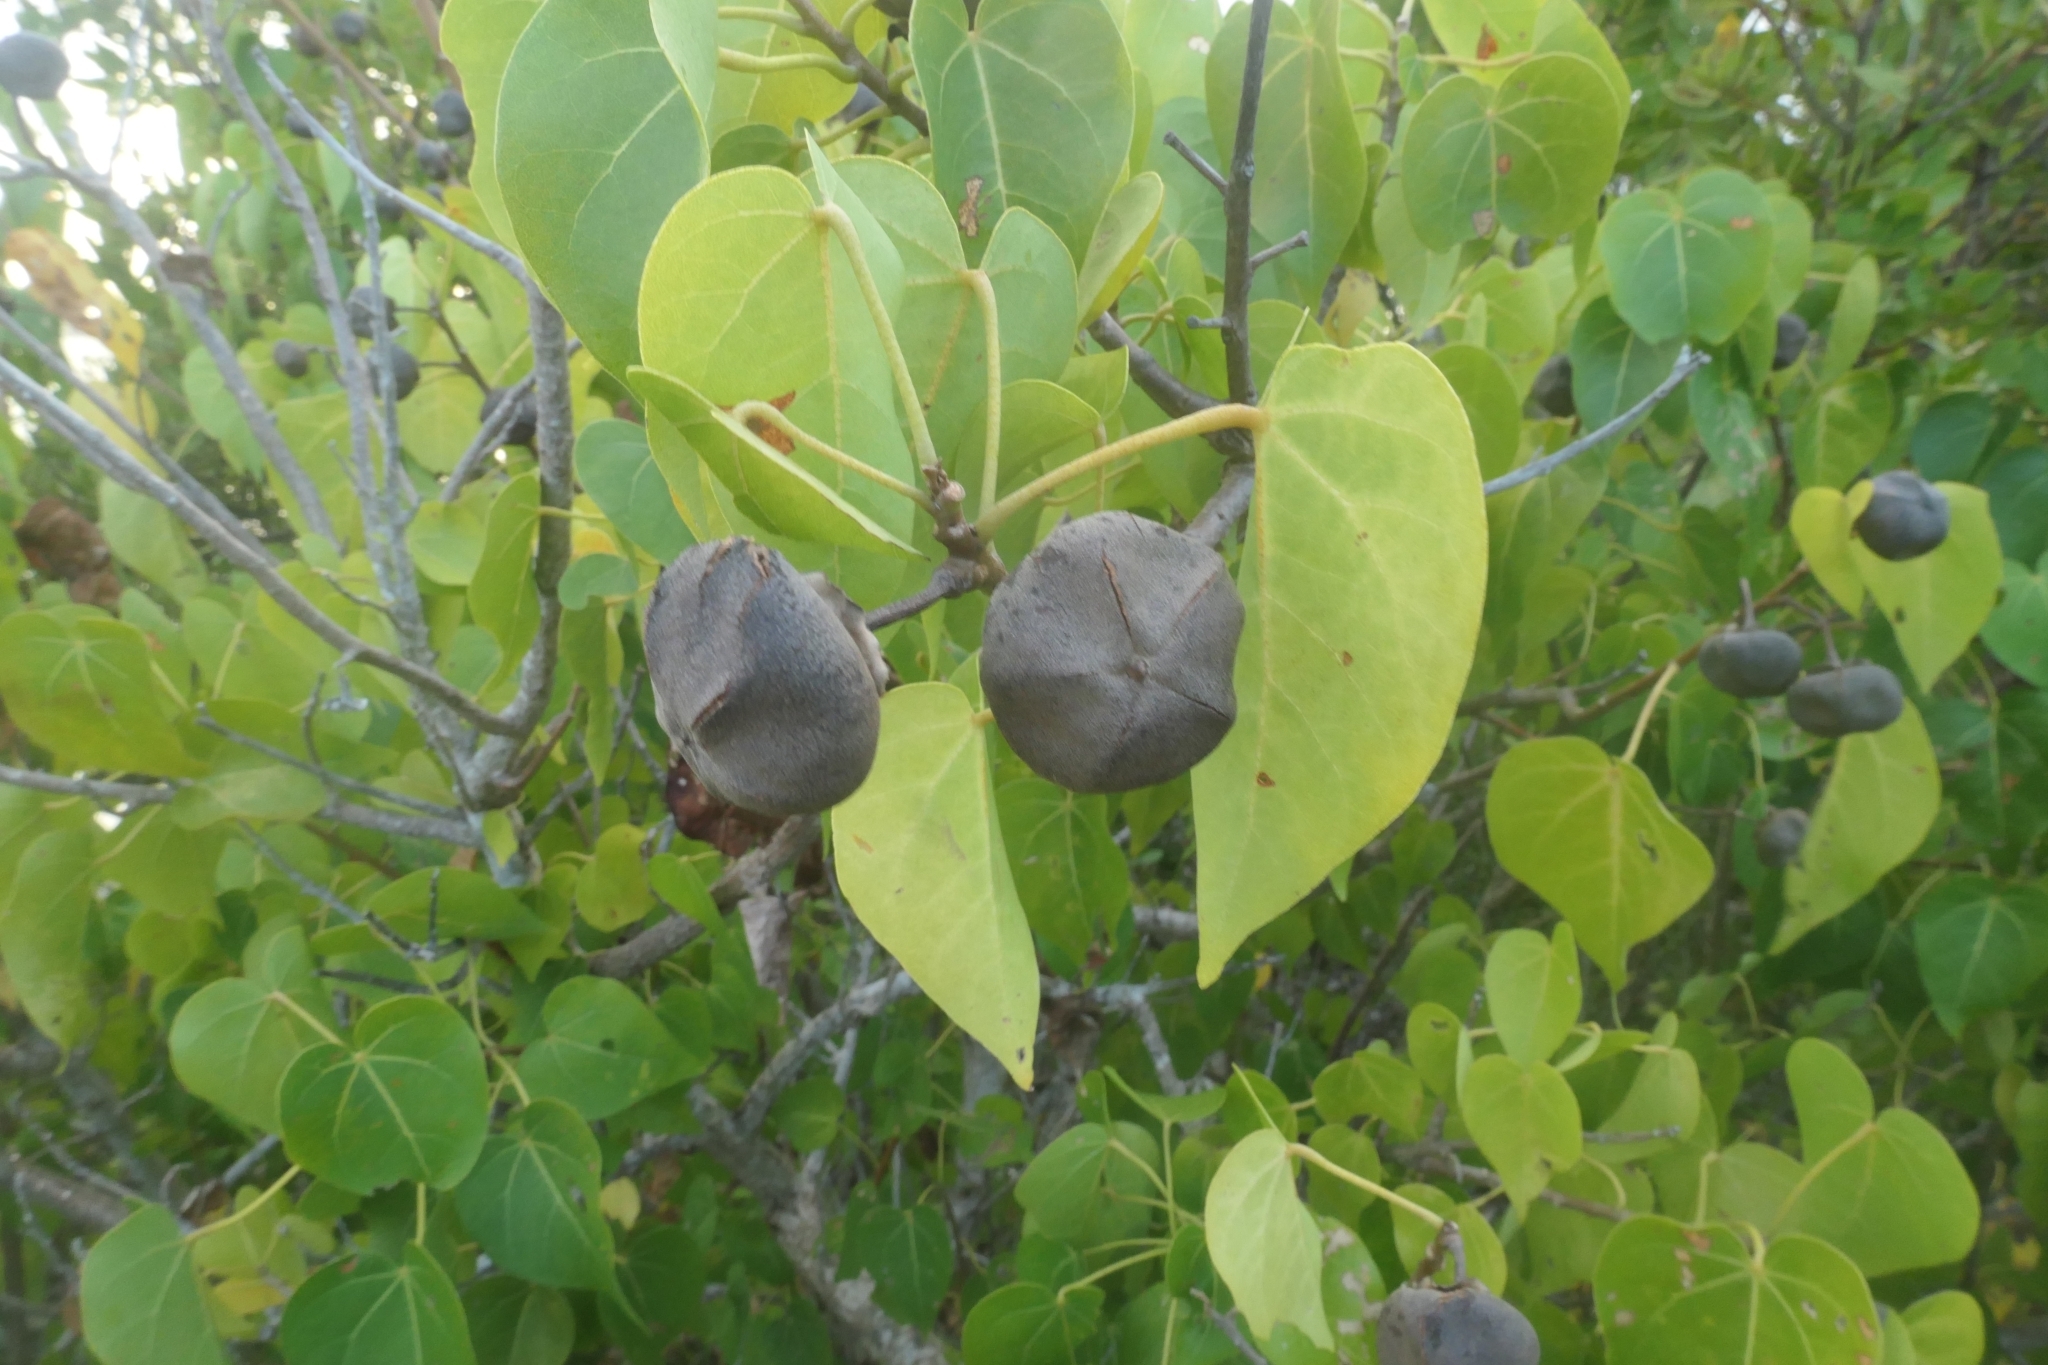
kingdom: Plantae
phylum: Tracheophyta
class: Magnoliopsida
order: Malvales
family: Malvaceae
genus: Thespesia
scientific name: Thespesia populnea
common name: Seaside mahoe
